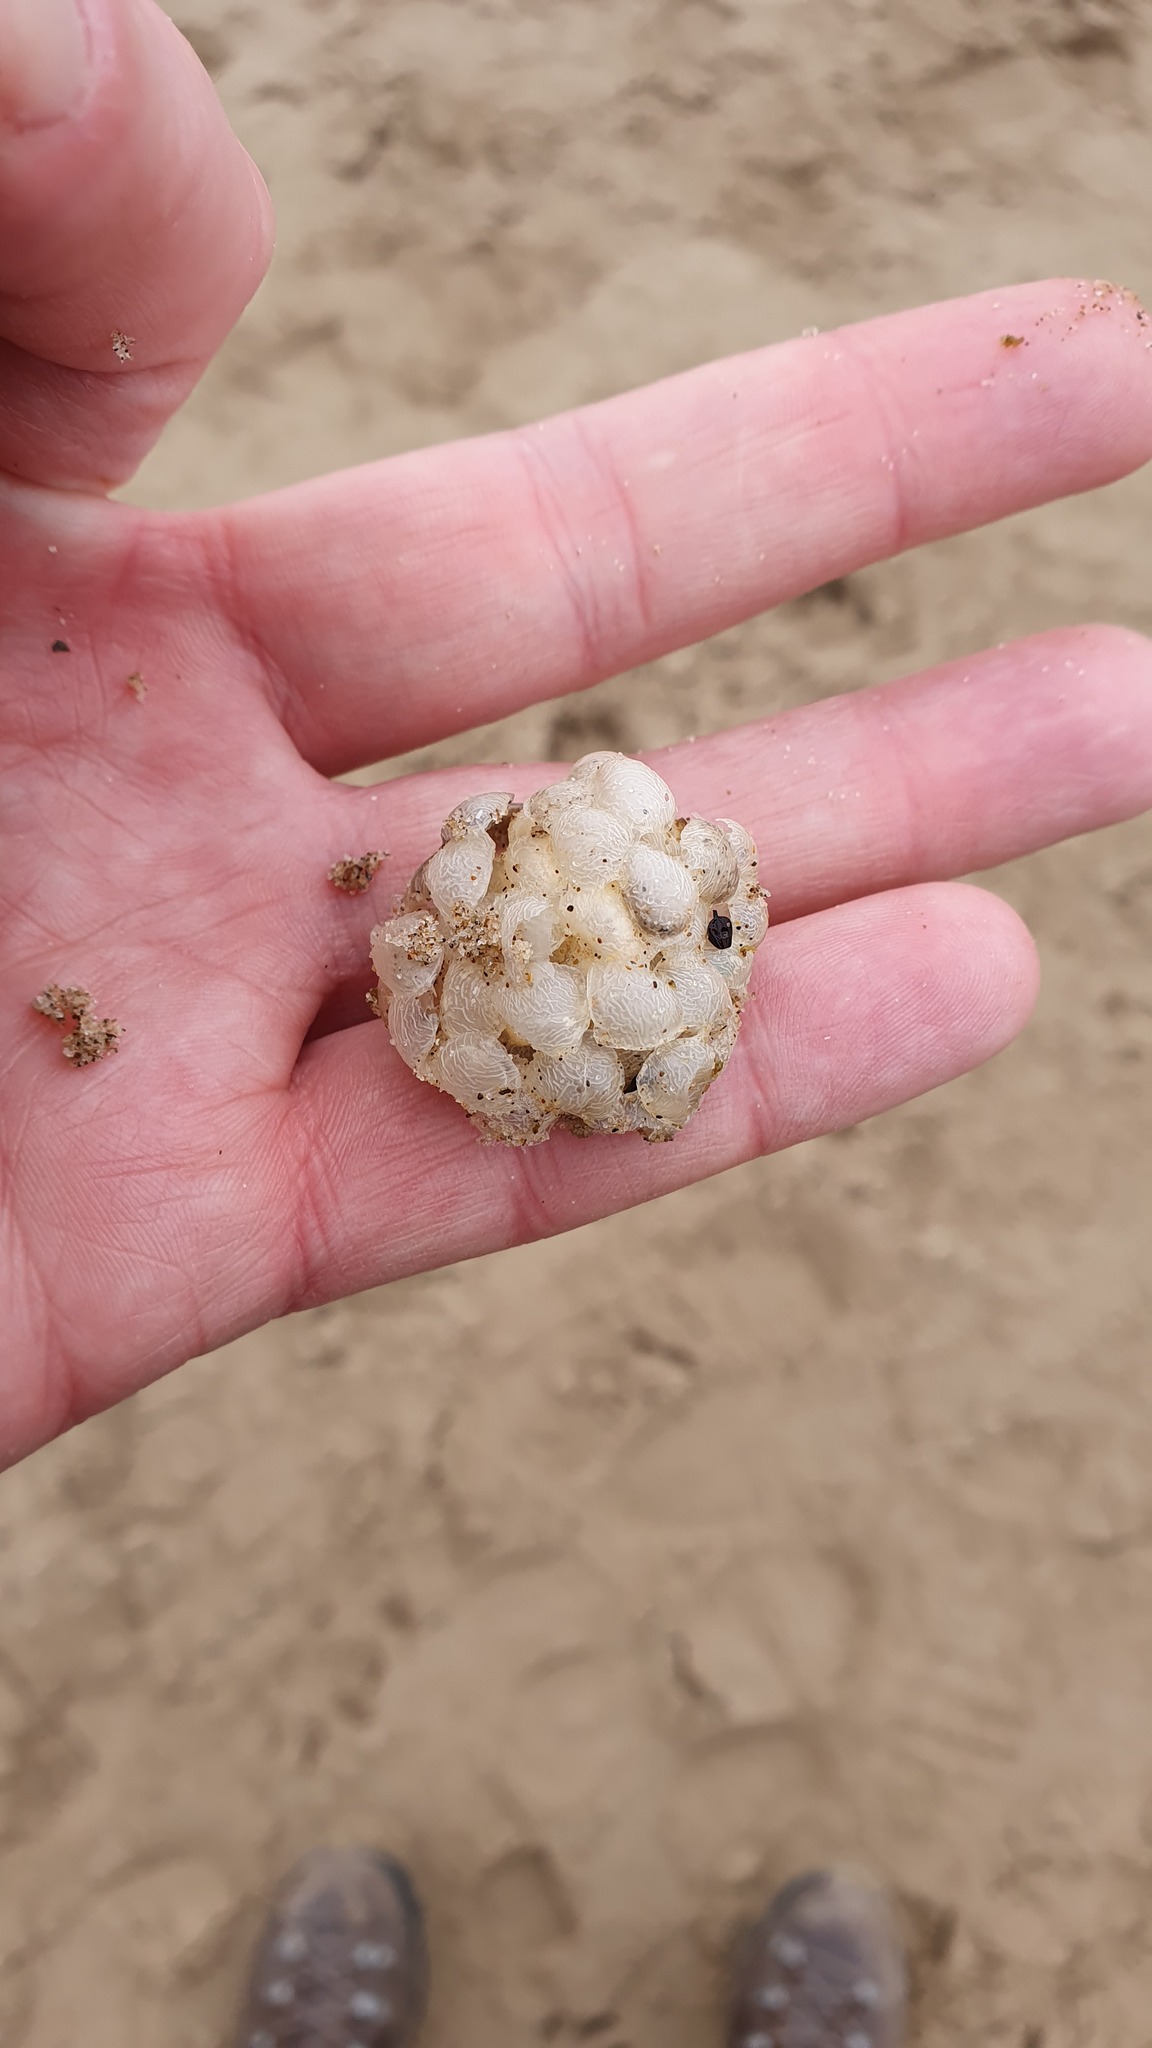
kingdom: Animalia
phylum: Mollusca
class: Gastropoda
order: Neogastropoda
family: Buccinidae
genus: Buccinum
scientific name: Buccinum undatum
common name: Common whelk
